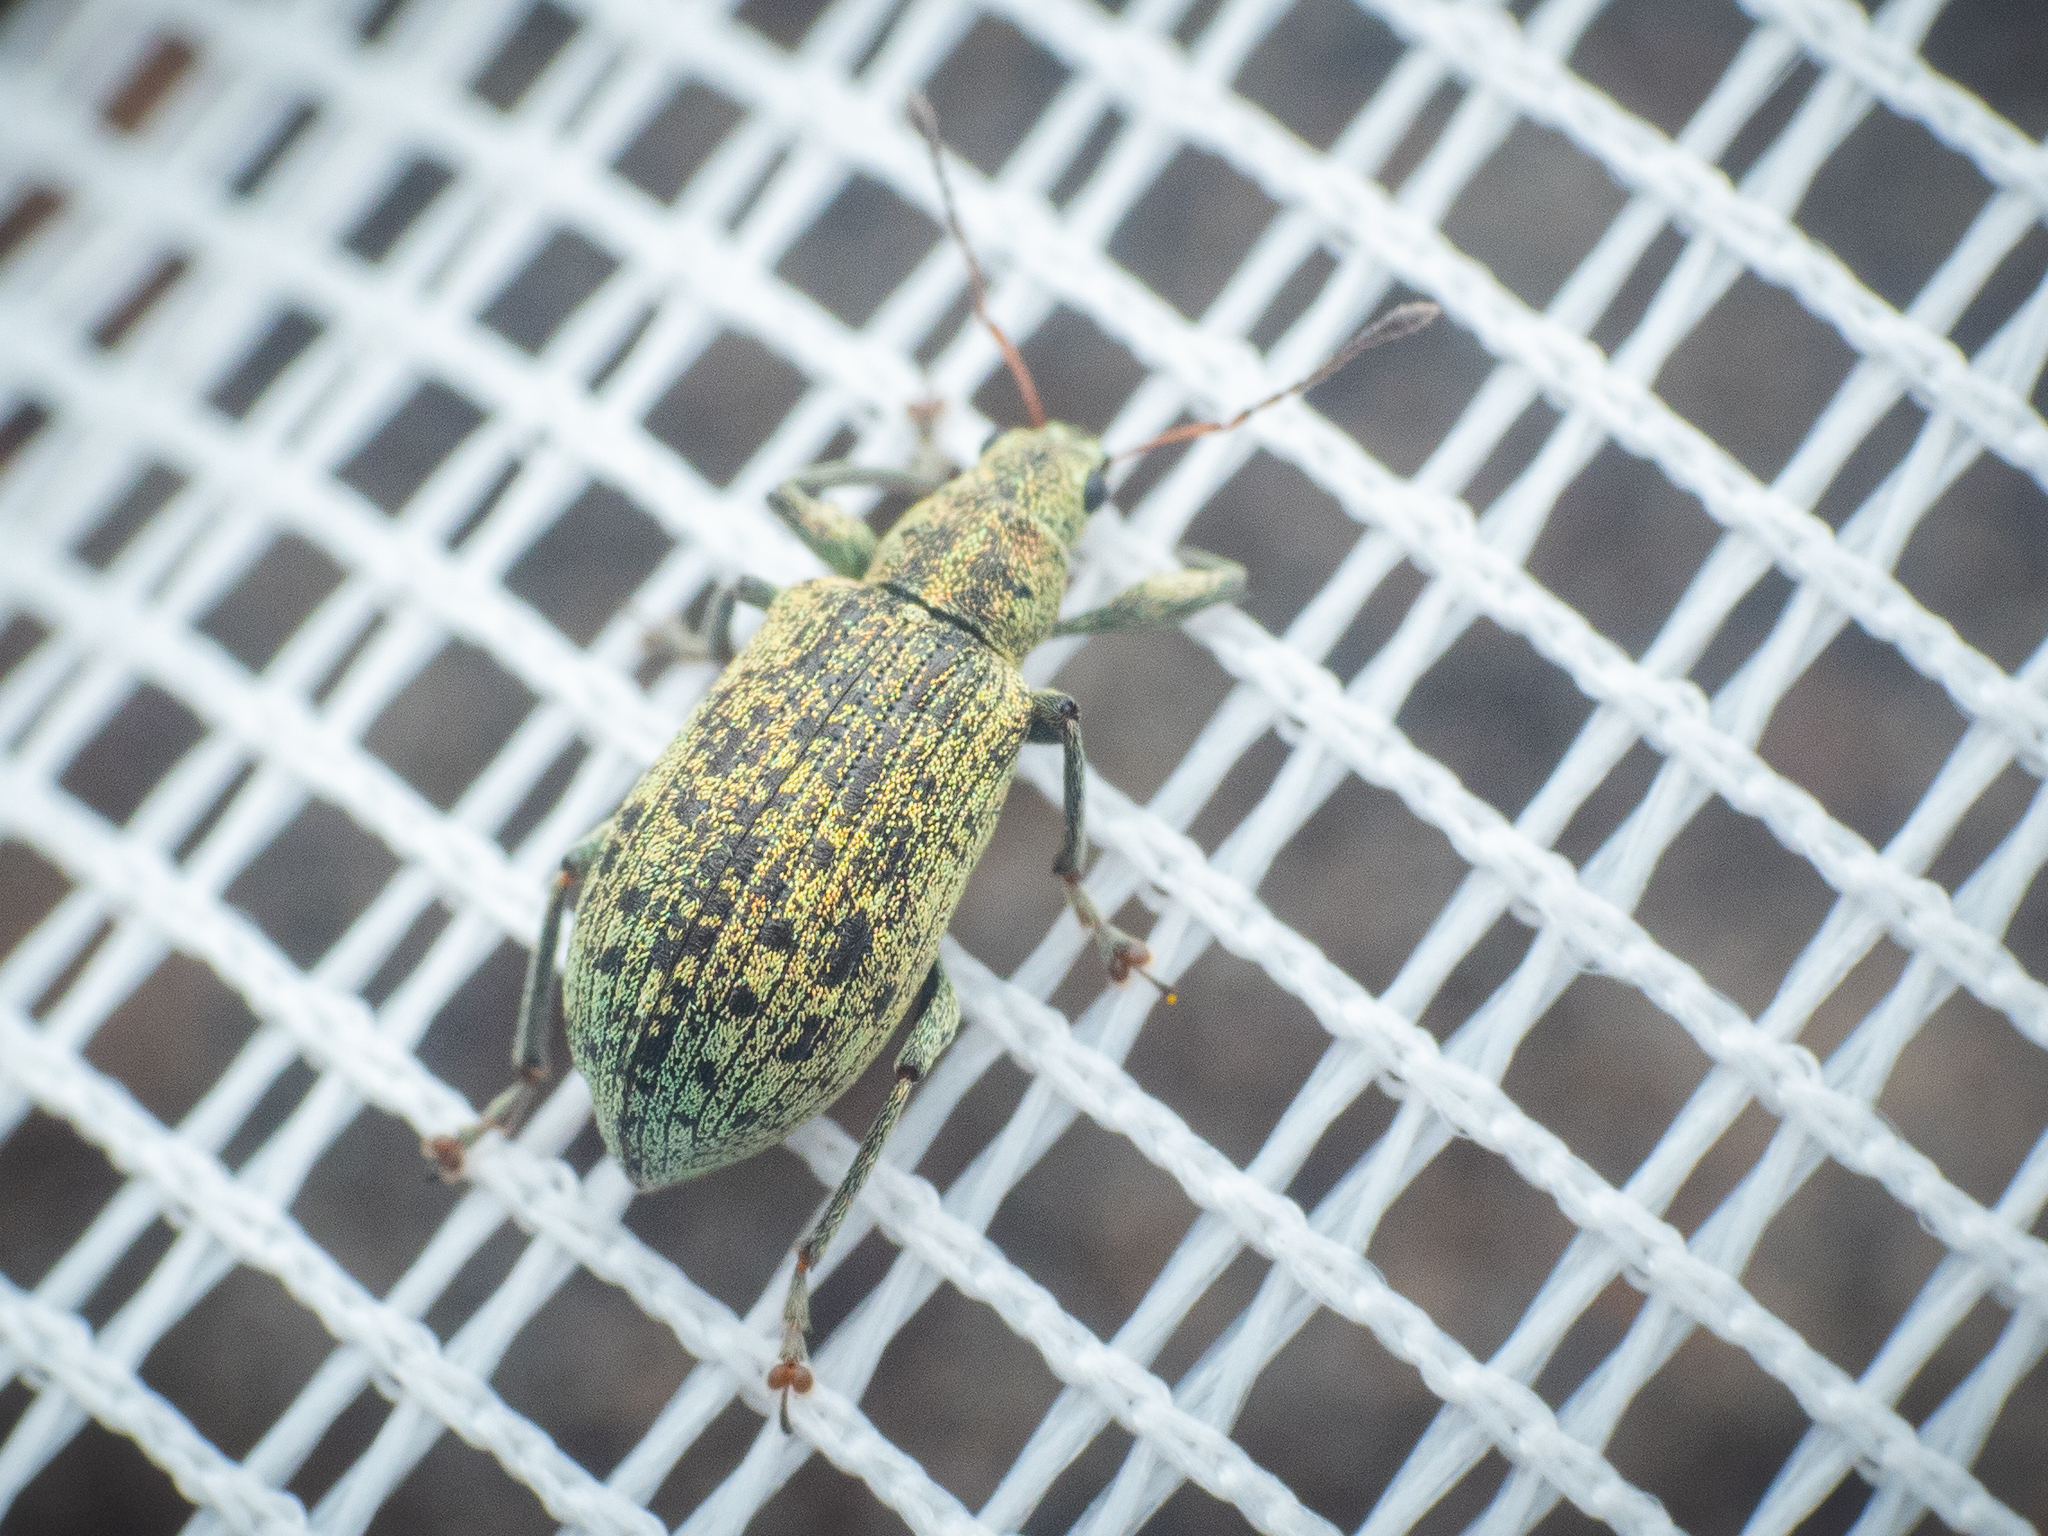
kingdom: Animalia
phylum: Arthropoda
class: Insecta
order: Coleoptera
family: Curculionidae
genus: Polydrusus
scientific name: Polydrusus cervinus
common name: Weevil
